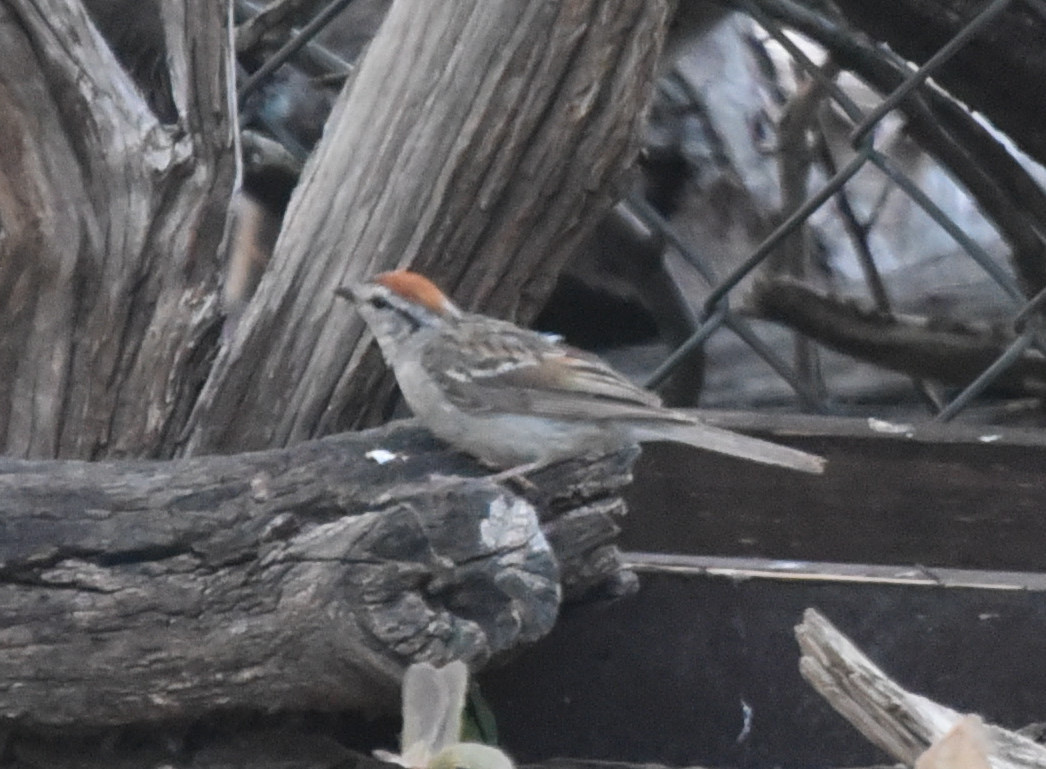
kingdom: Animalia
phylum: Chordata
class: Aves
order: Passeriformes
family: Passerellidae
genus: Spizella
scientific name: Spizella passerina
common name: Chipping sparrow
